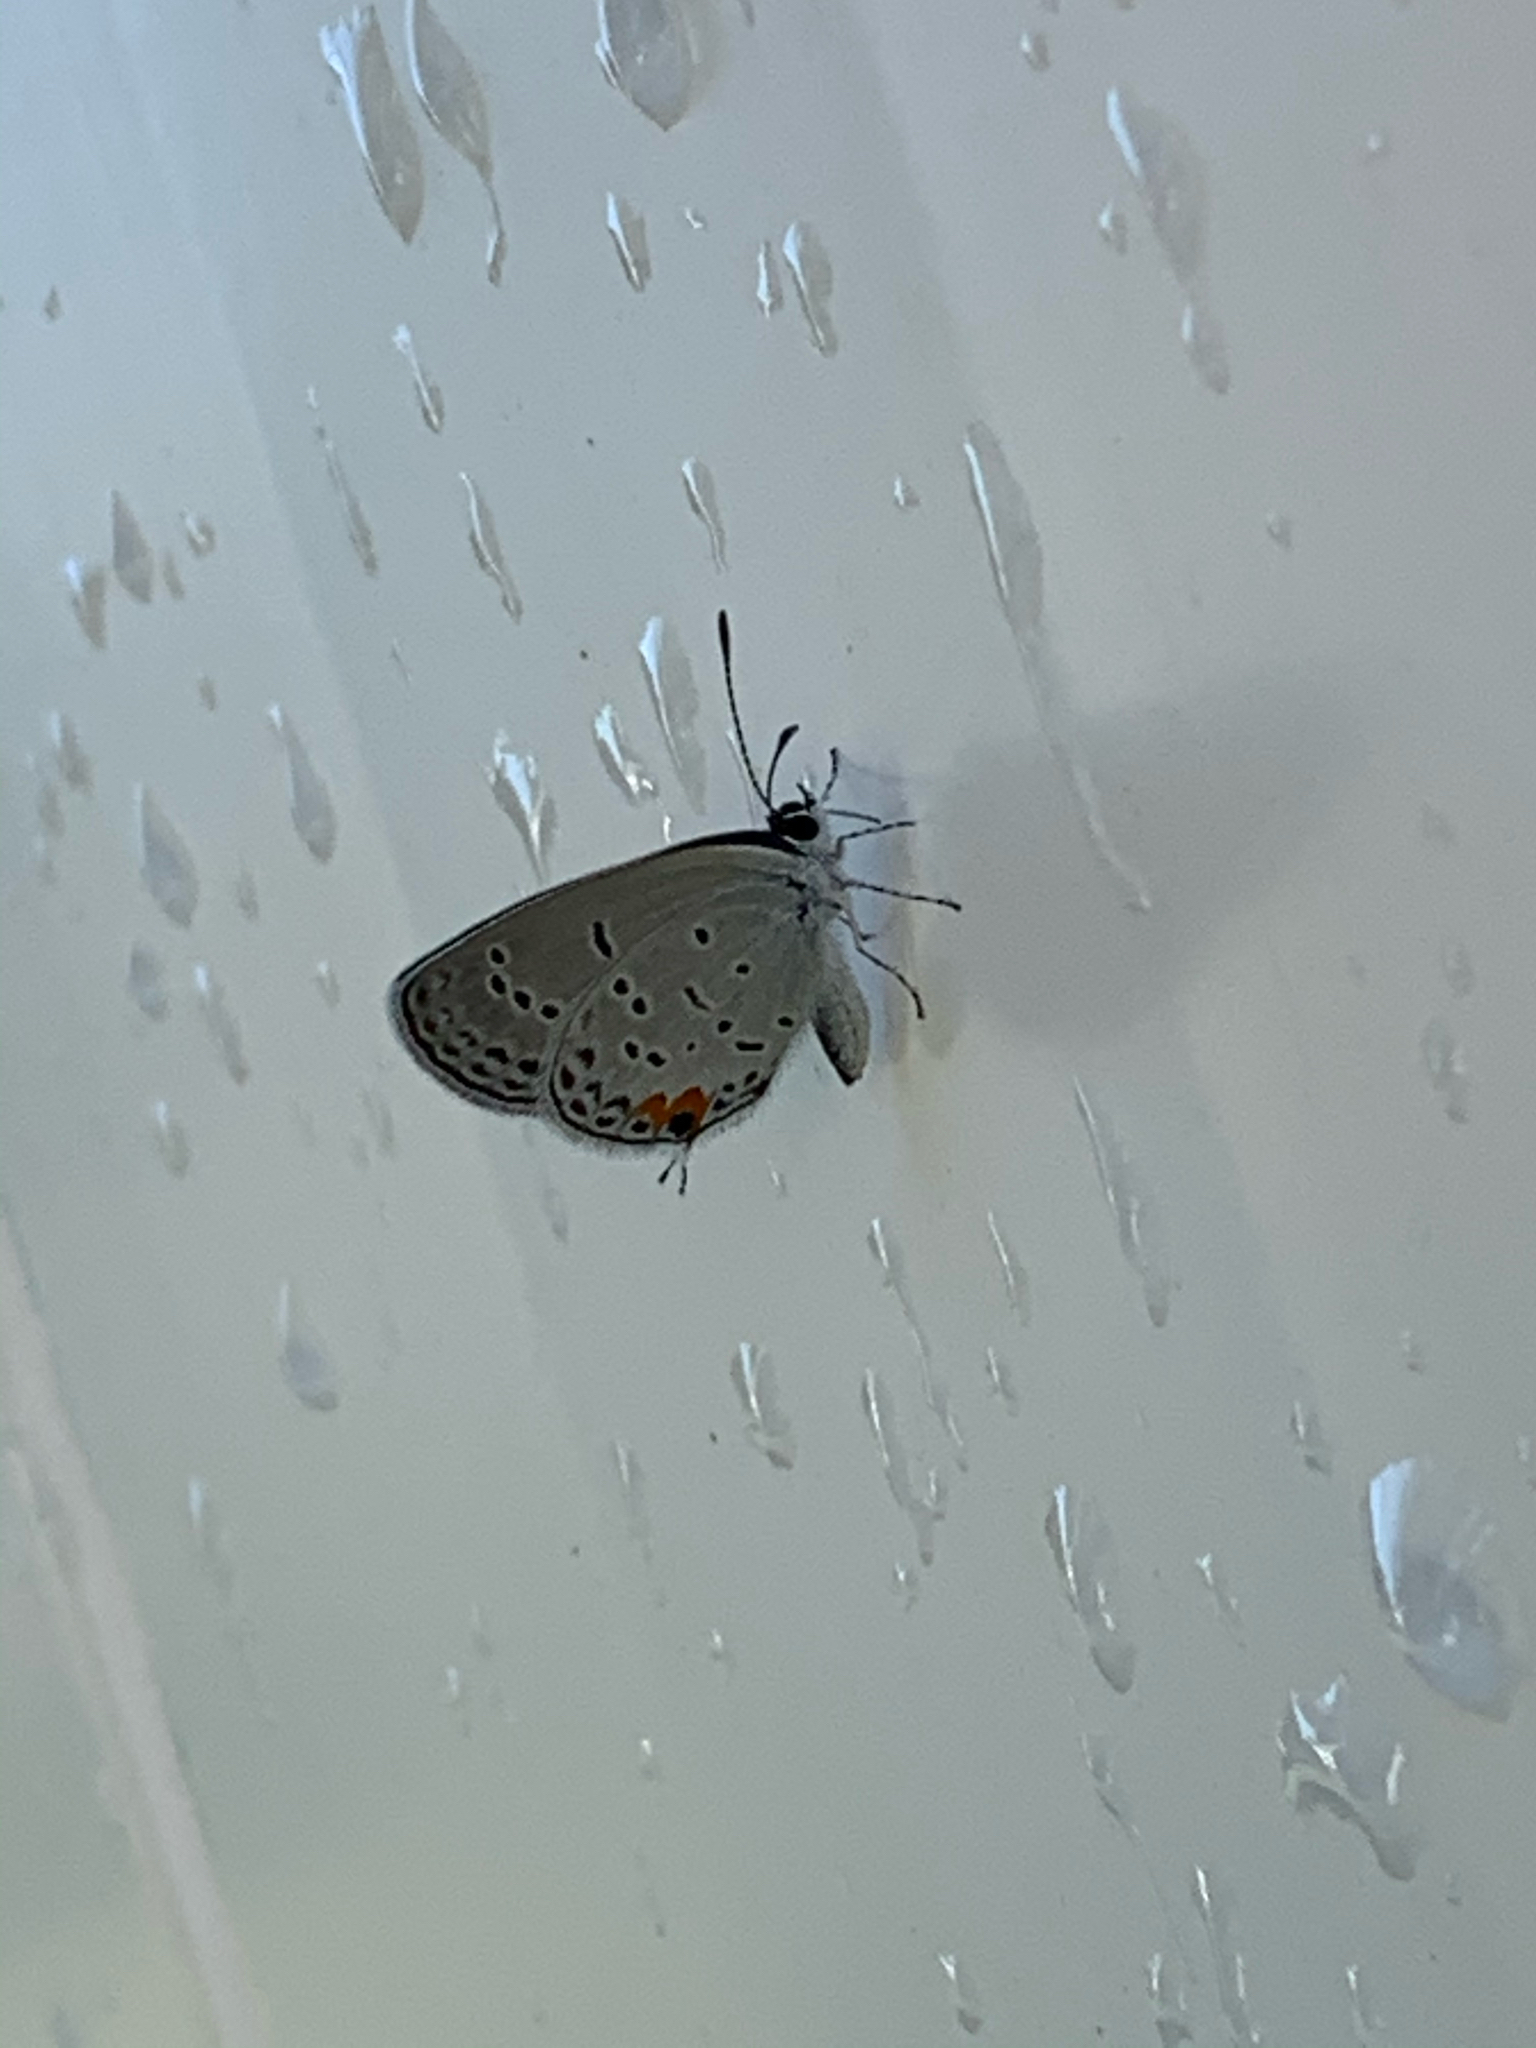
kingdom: Animalia
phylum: Arthropoda
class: Insecta
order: Lepidoptera
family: Lycaenidae
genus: Elkalyce
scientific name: Elkalyce comyntas
